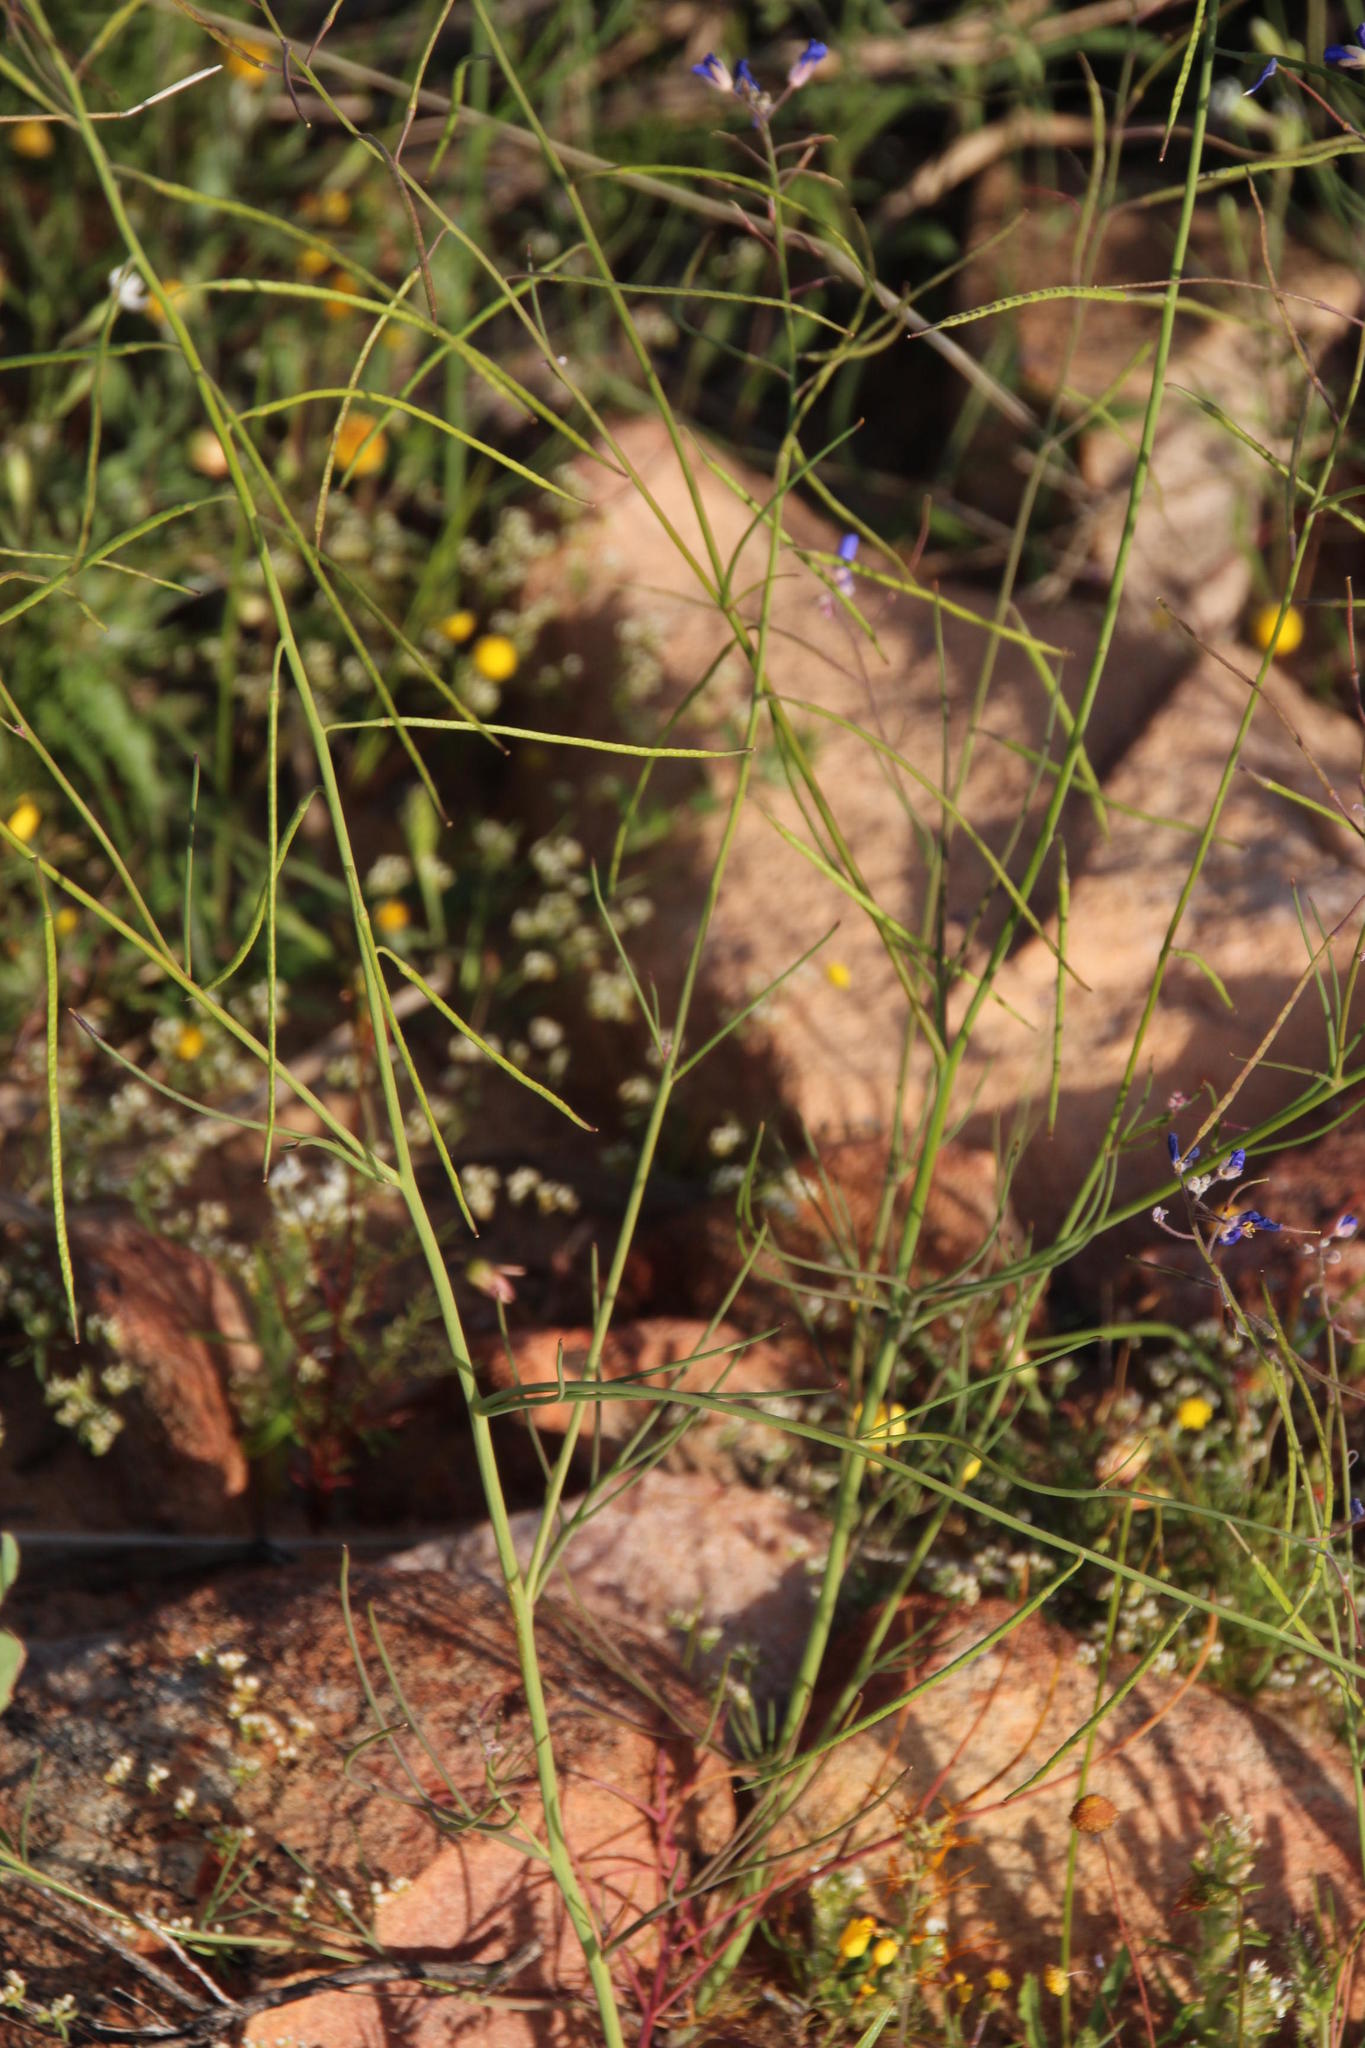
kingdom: Plantae
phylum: Tracheophyta
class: Magnoliopsida
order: Brassicales
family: Brassicaceae
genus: Heliophila
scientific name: Heliophila arenaria
